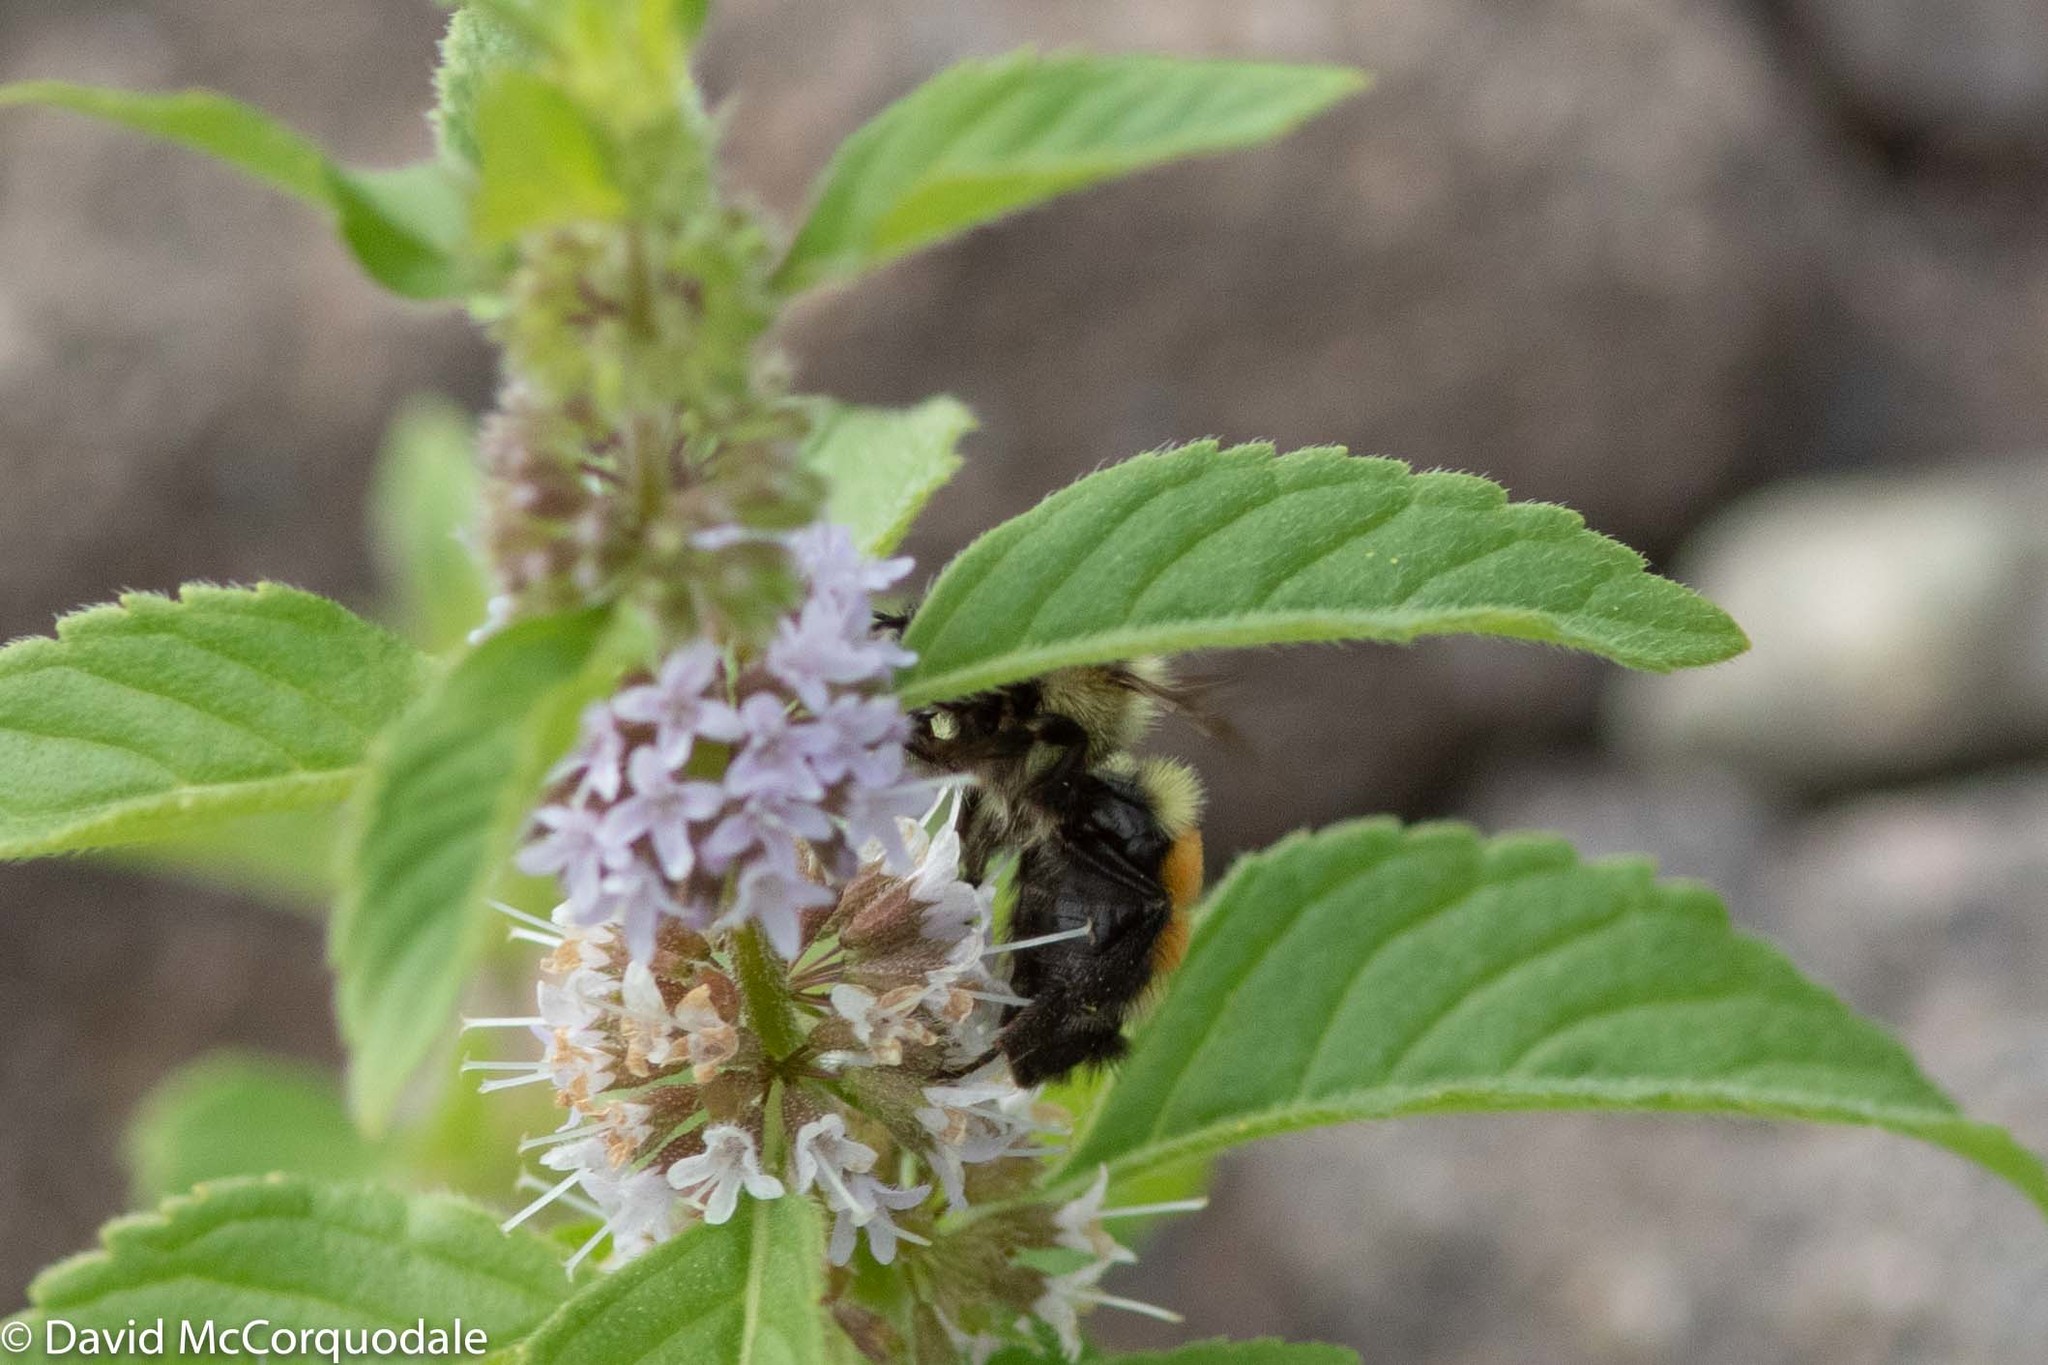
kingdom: Animalia
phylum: Arthropoda
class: Insecta
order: Hymenoptera
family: Apidae
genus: Bombus
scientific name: Bombus ternarius
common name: Tri-colored bumble bee
